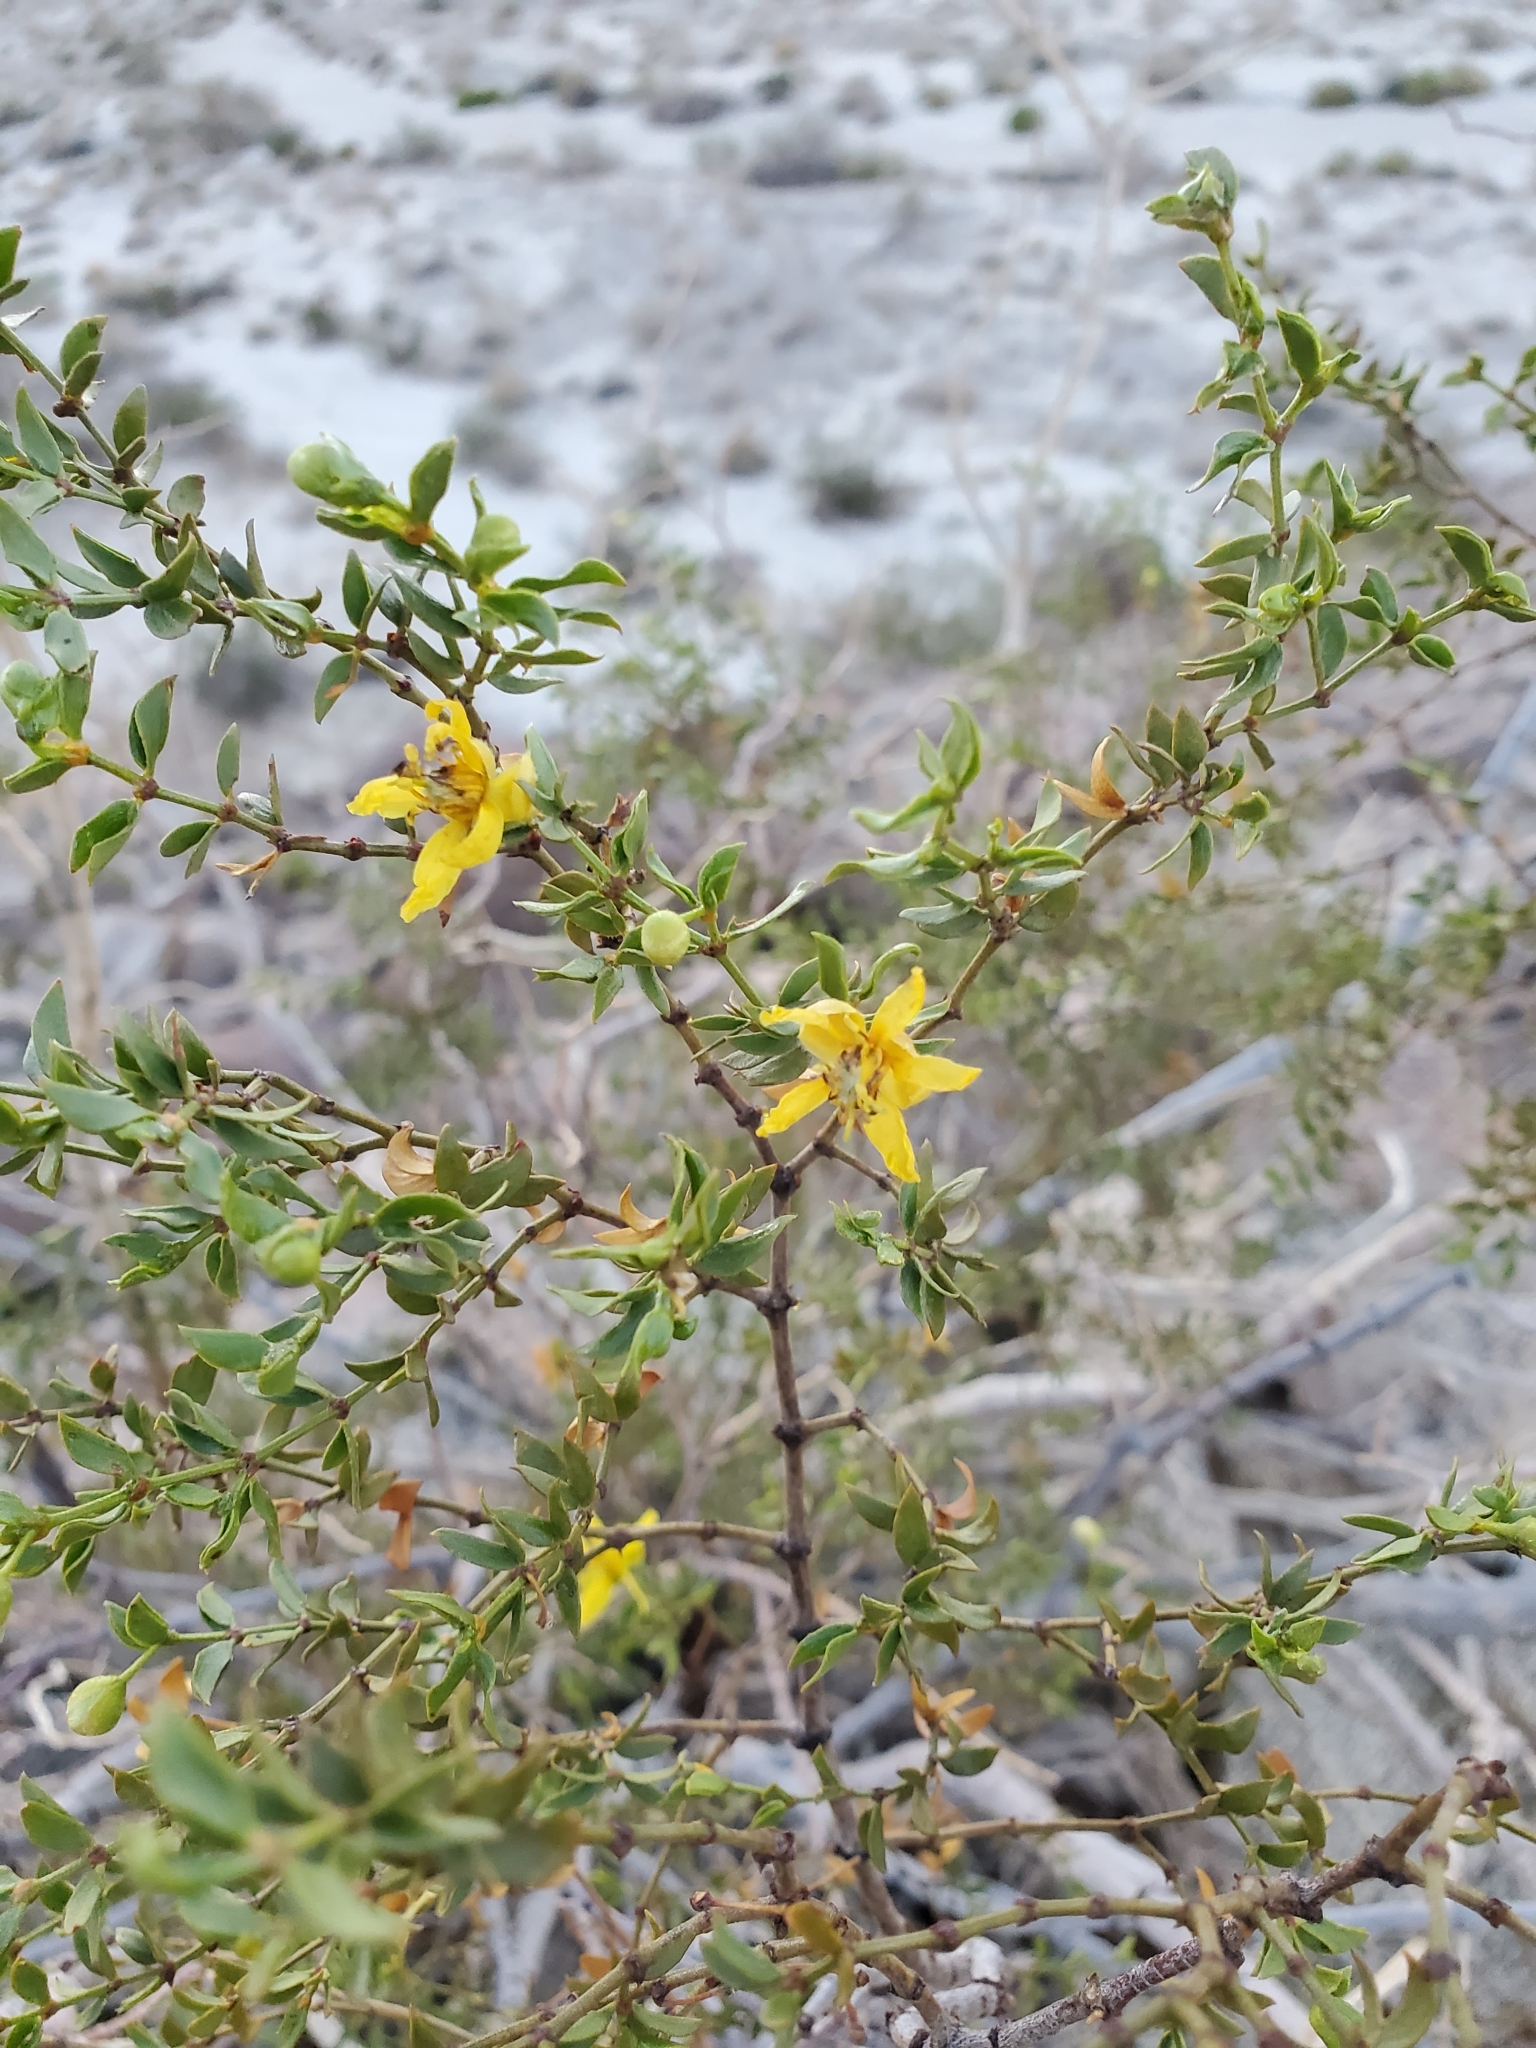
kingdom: Plantae
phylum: Tracheophyta
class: Magnoliopsida
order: Zygophyllales
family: Zygophyllaceae
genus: Larrea
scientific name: Larrea tridentata
